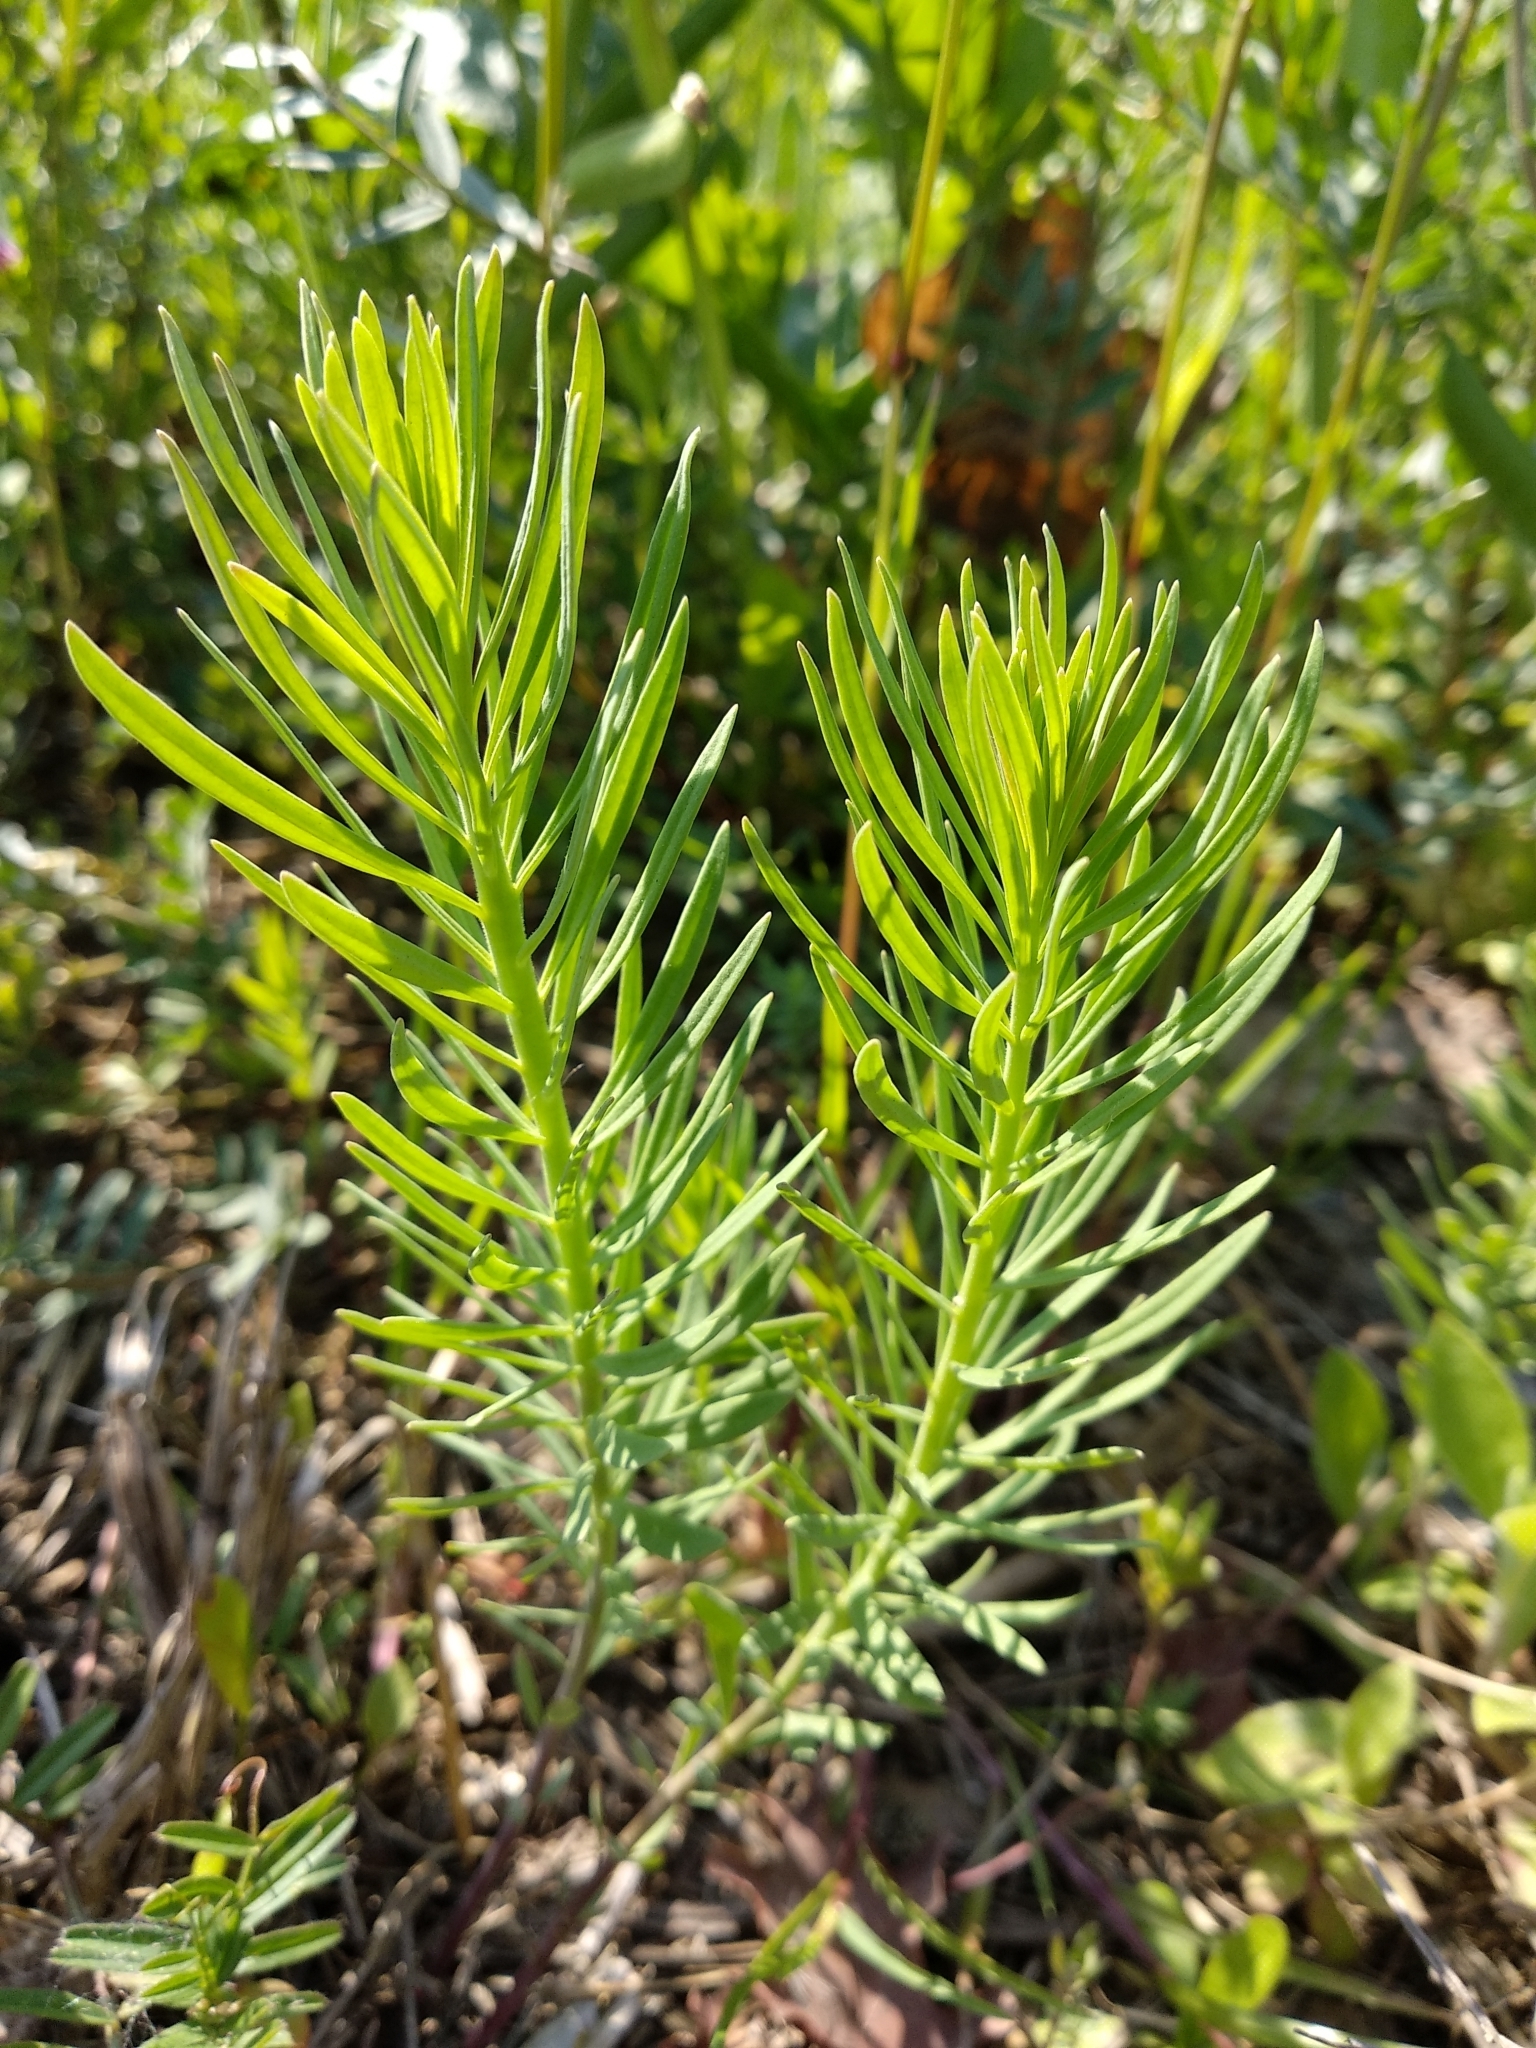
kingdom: Plantae
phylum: Tracheophyta
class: Magnoliopsida
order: Malpighiales
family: Euphorbiaceae
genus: Euphorbia
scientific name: Euphorbia cyparissias
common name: Cypress spurge
